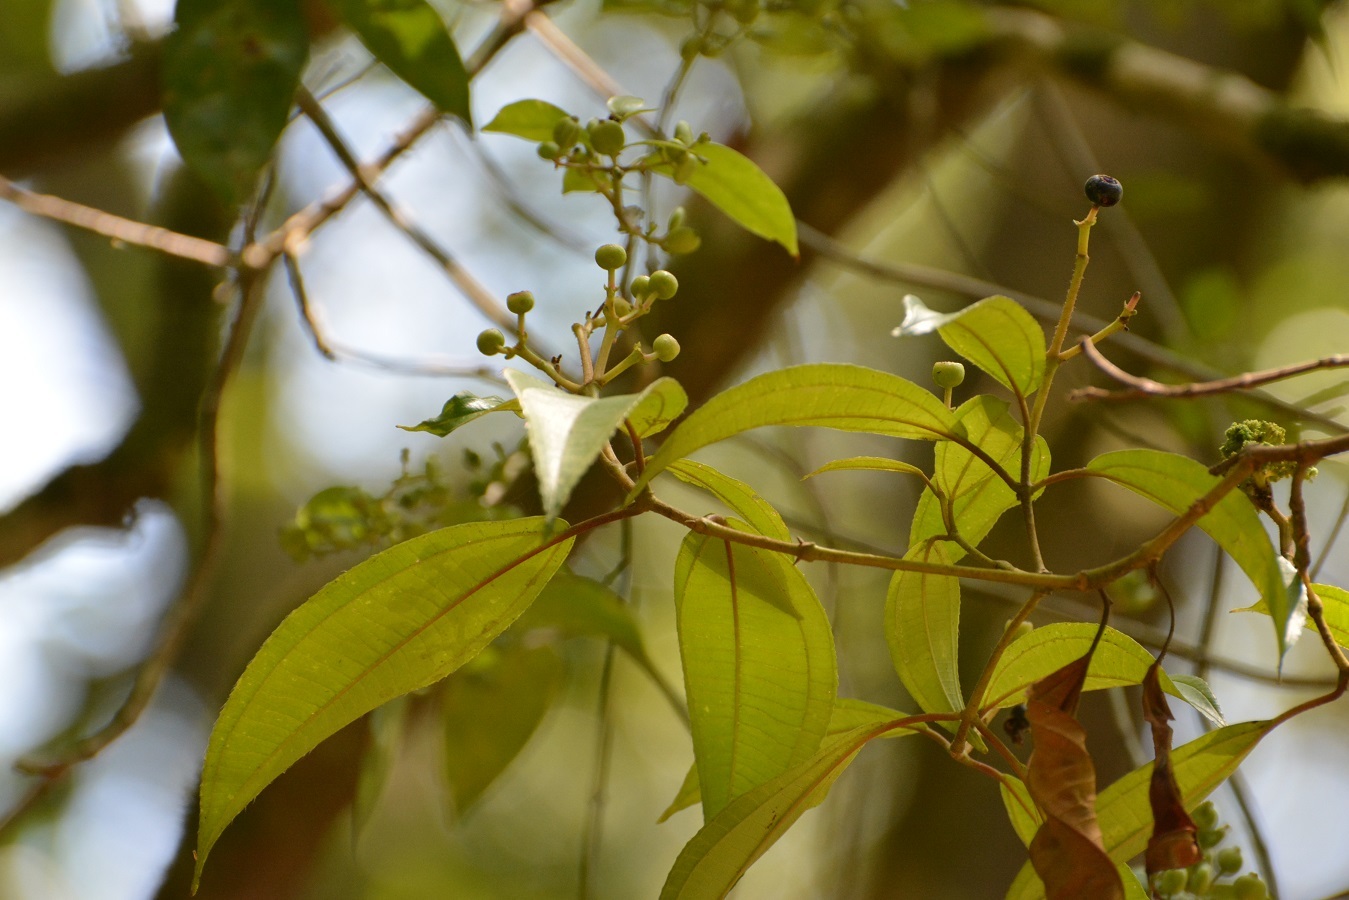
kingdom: Plantae
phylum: Tracheophyta
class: Magnoliopsida
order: Myrtales
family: Melastomataceae
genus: Miconia
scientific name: Miconia subhirsuta
